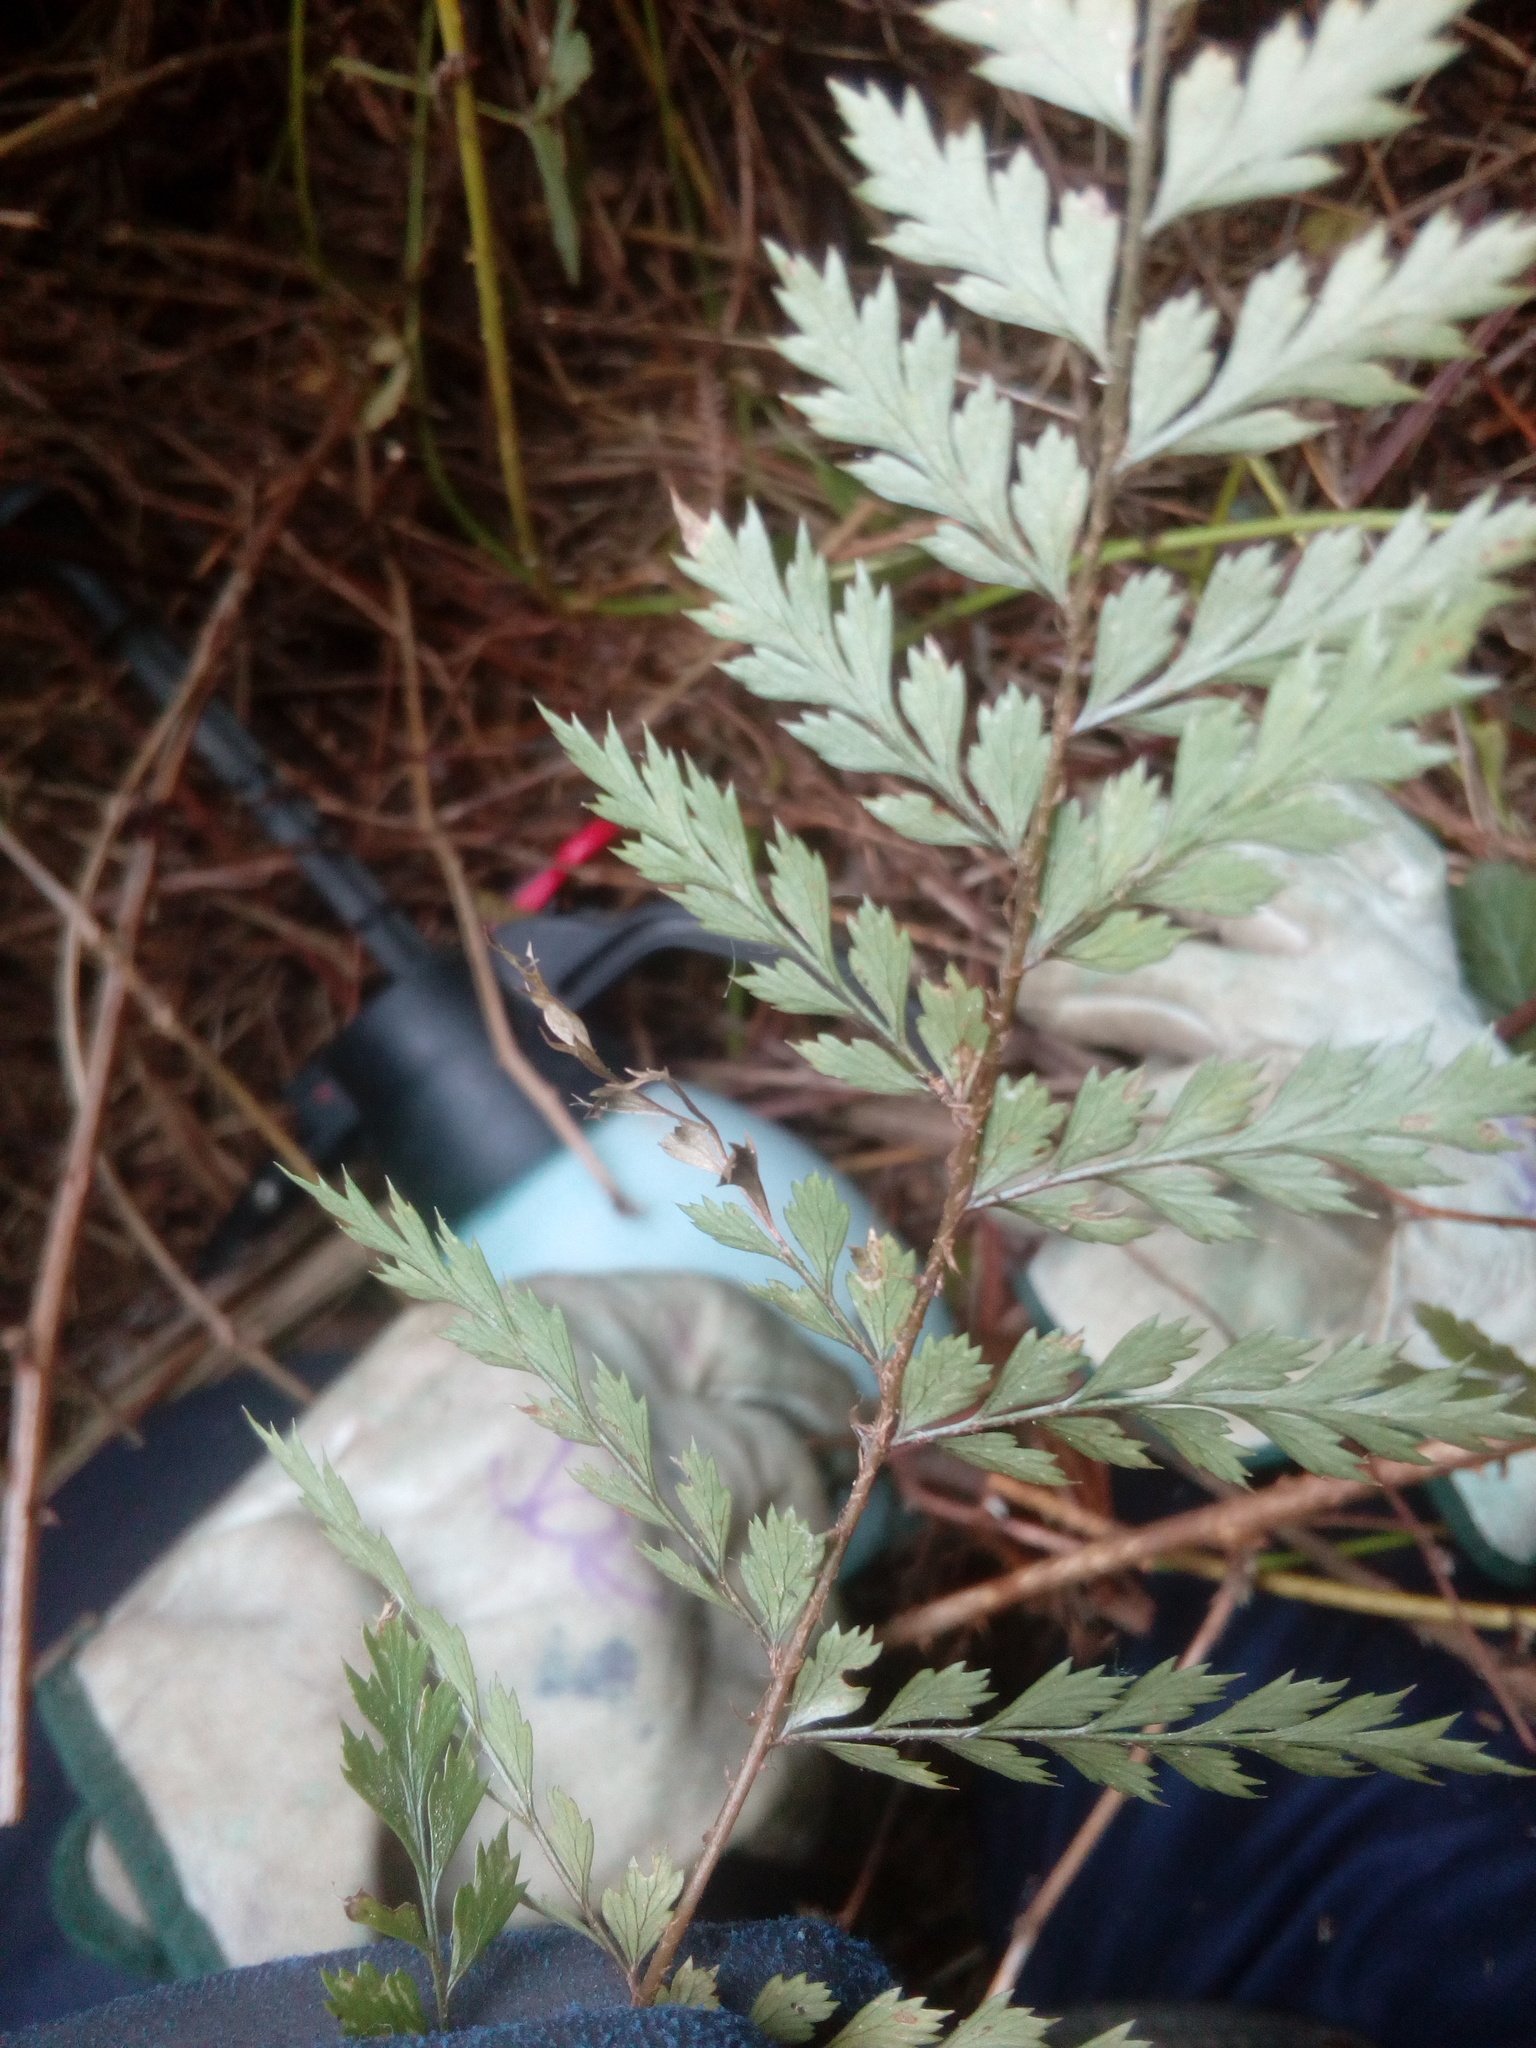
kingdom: Plantae
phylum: Tracheophyta
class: Polypodiopsida
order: Polypodiales
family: Dryopteridaceae
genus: Polystichum
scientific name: Polystichum vestitum
